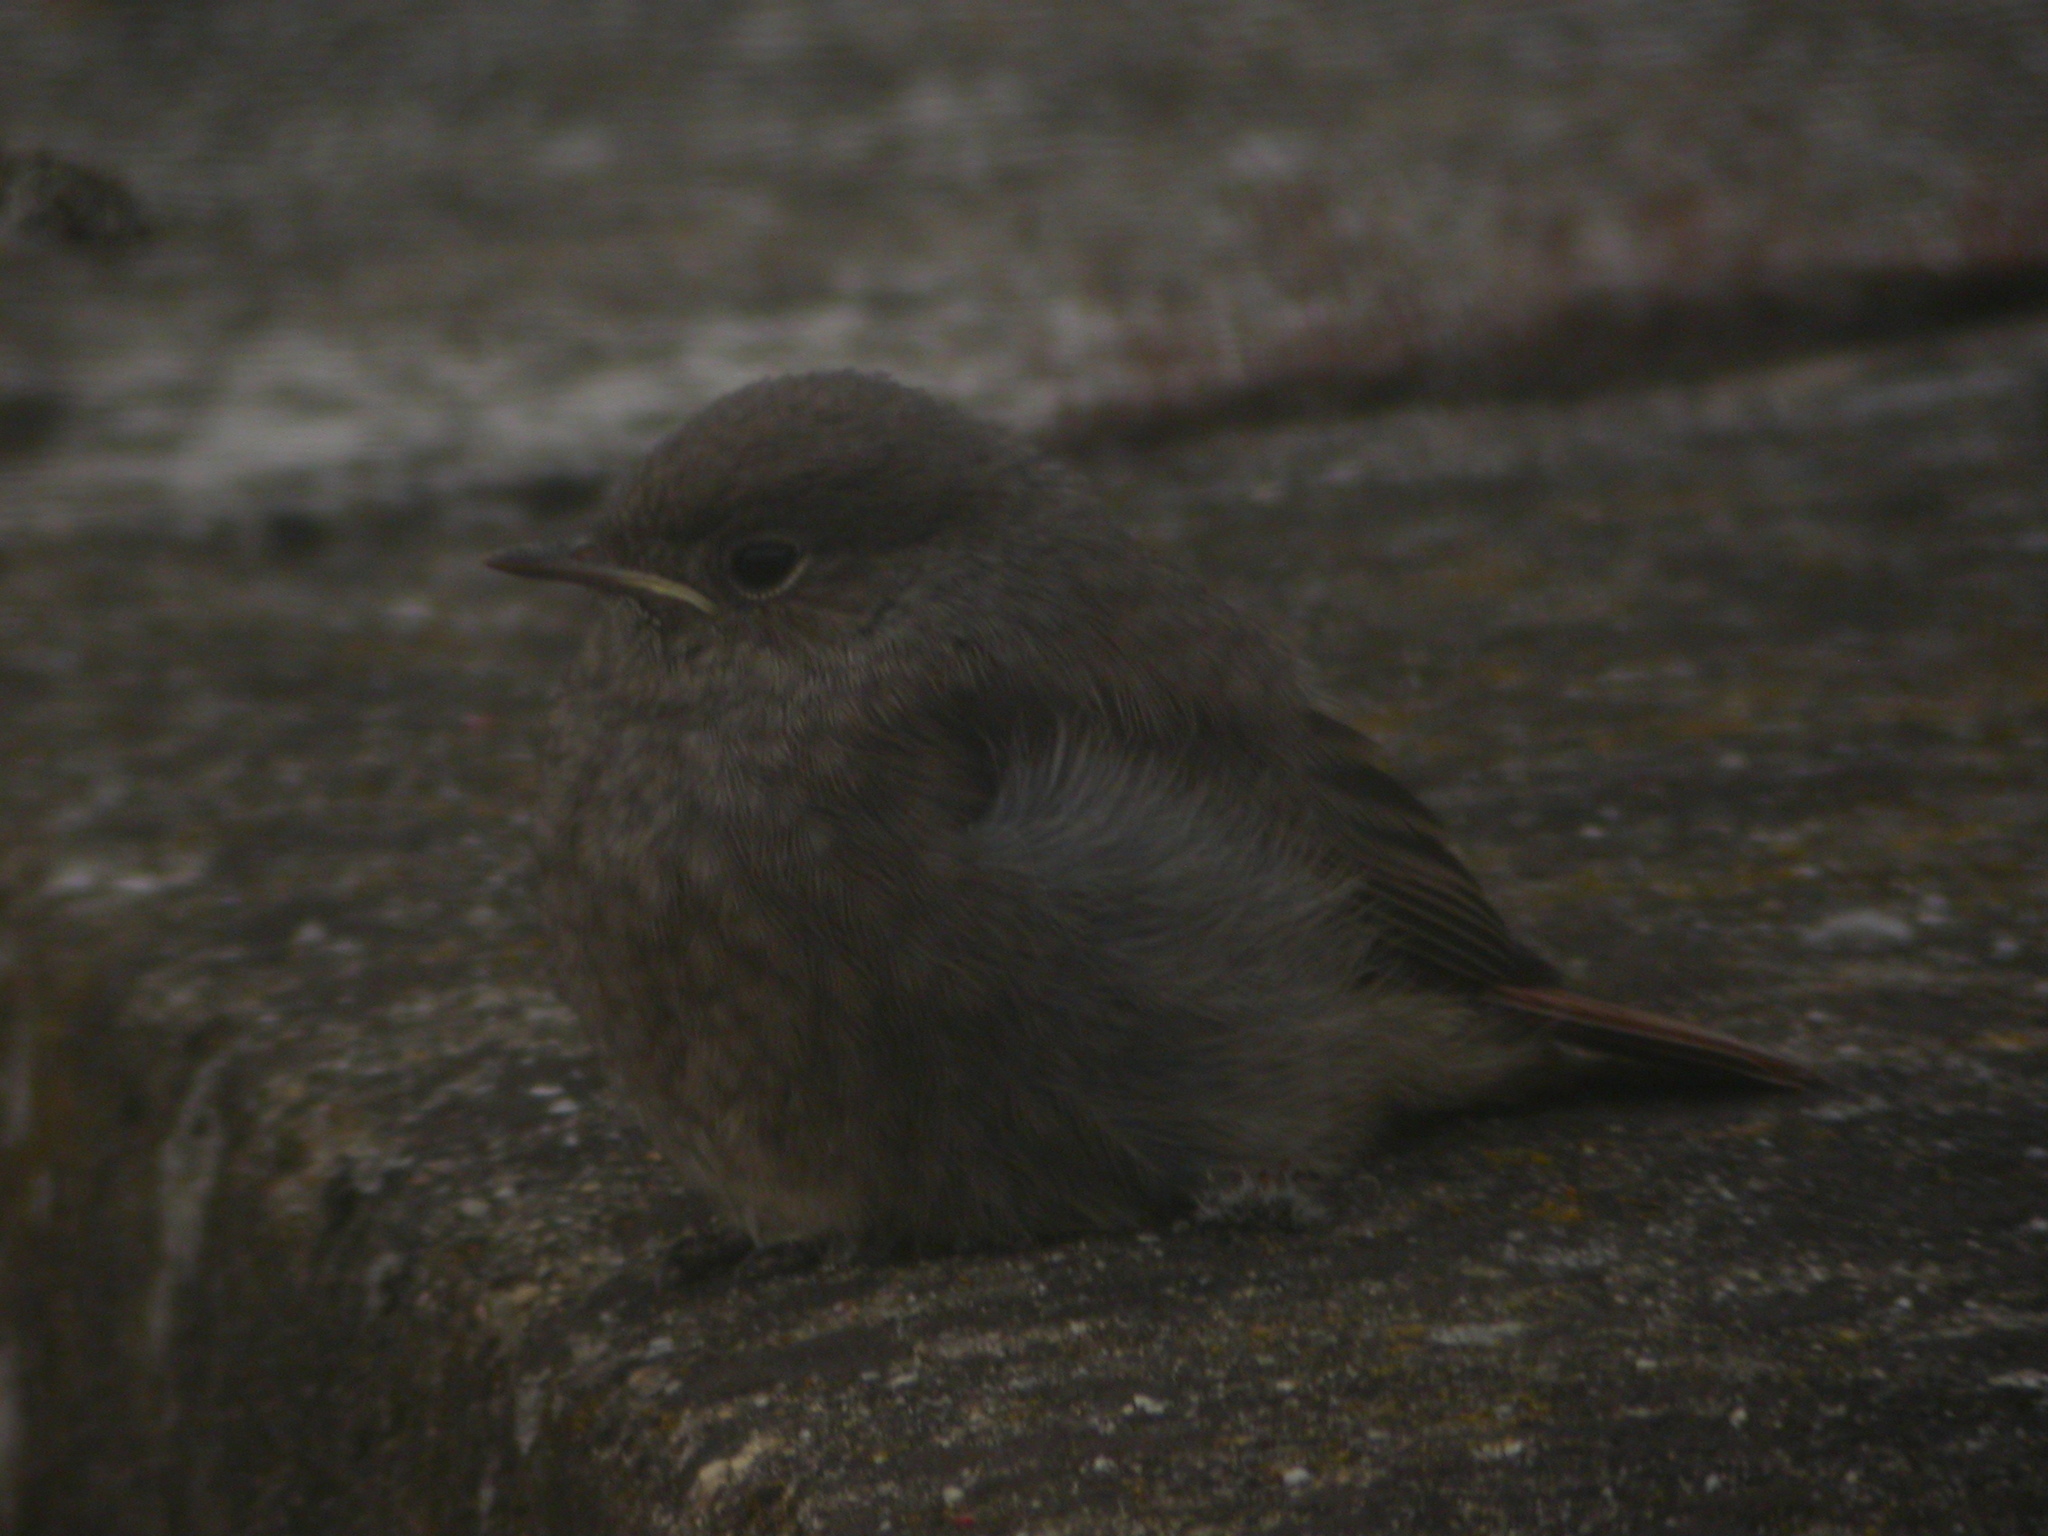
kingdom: Animalia
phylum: Chordata
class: Aves
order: Passeriformes
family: Muscicapidae
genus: Phoenicurus
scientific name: Phoenicurus ochruros
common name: Black redstart
